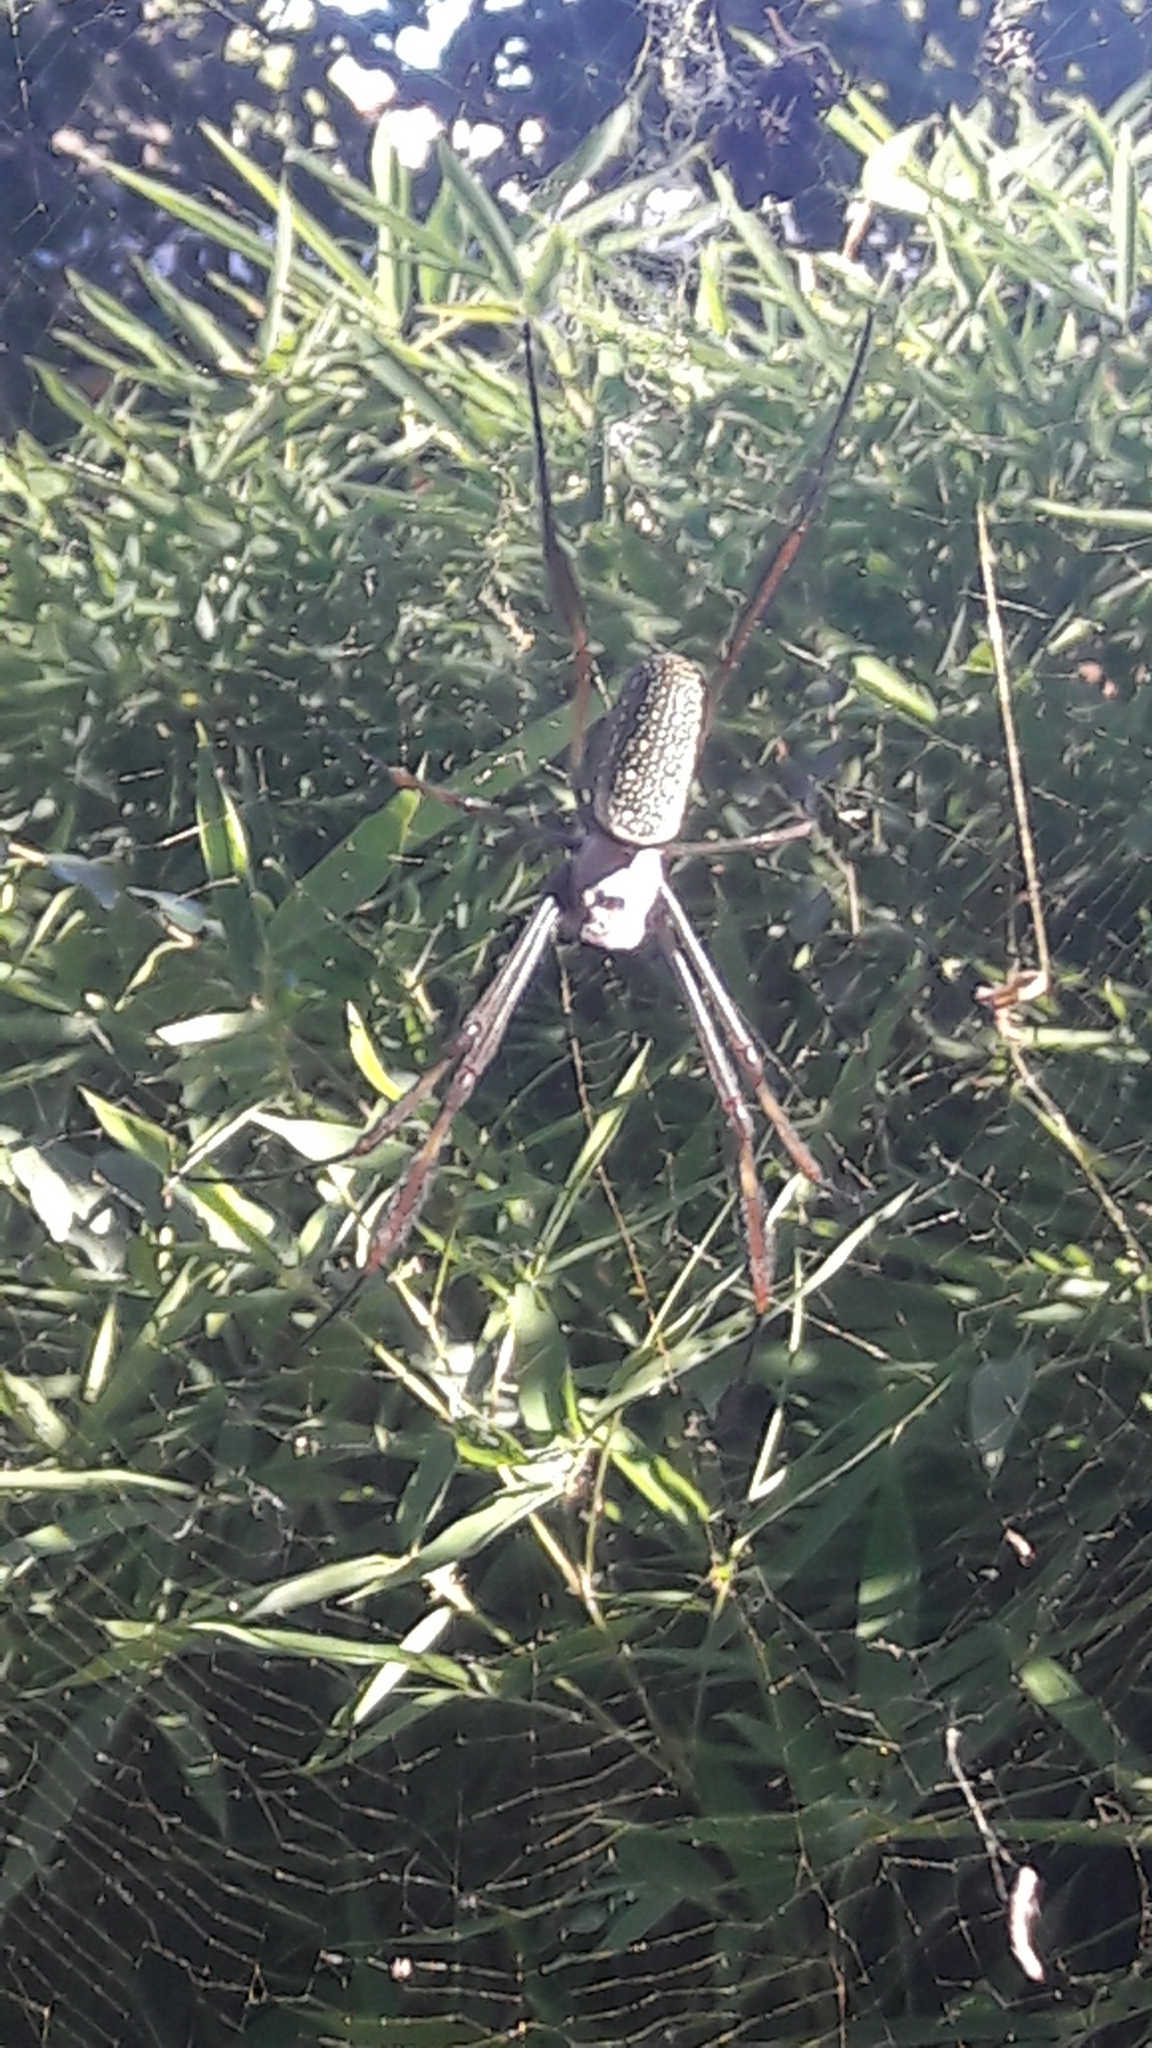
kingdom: Animalia
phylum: Arthropoda
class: Arachnida
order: Araneae
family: Araneidae
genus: Trichonephila
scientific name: Trichonephila clavipes
